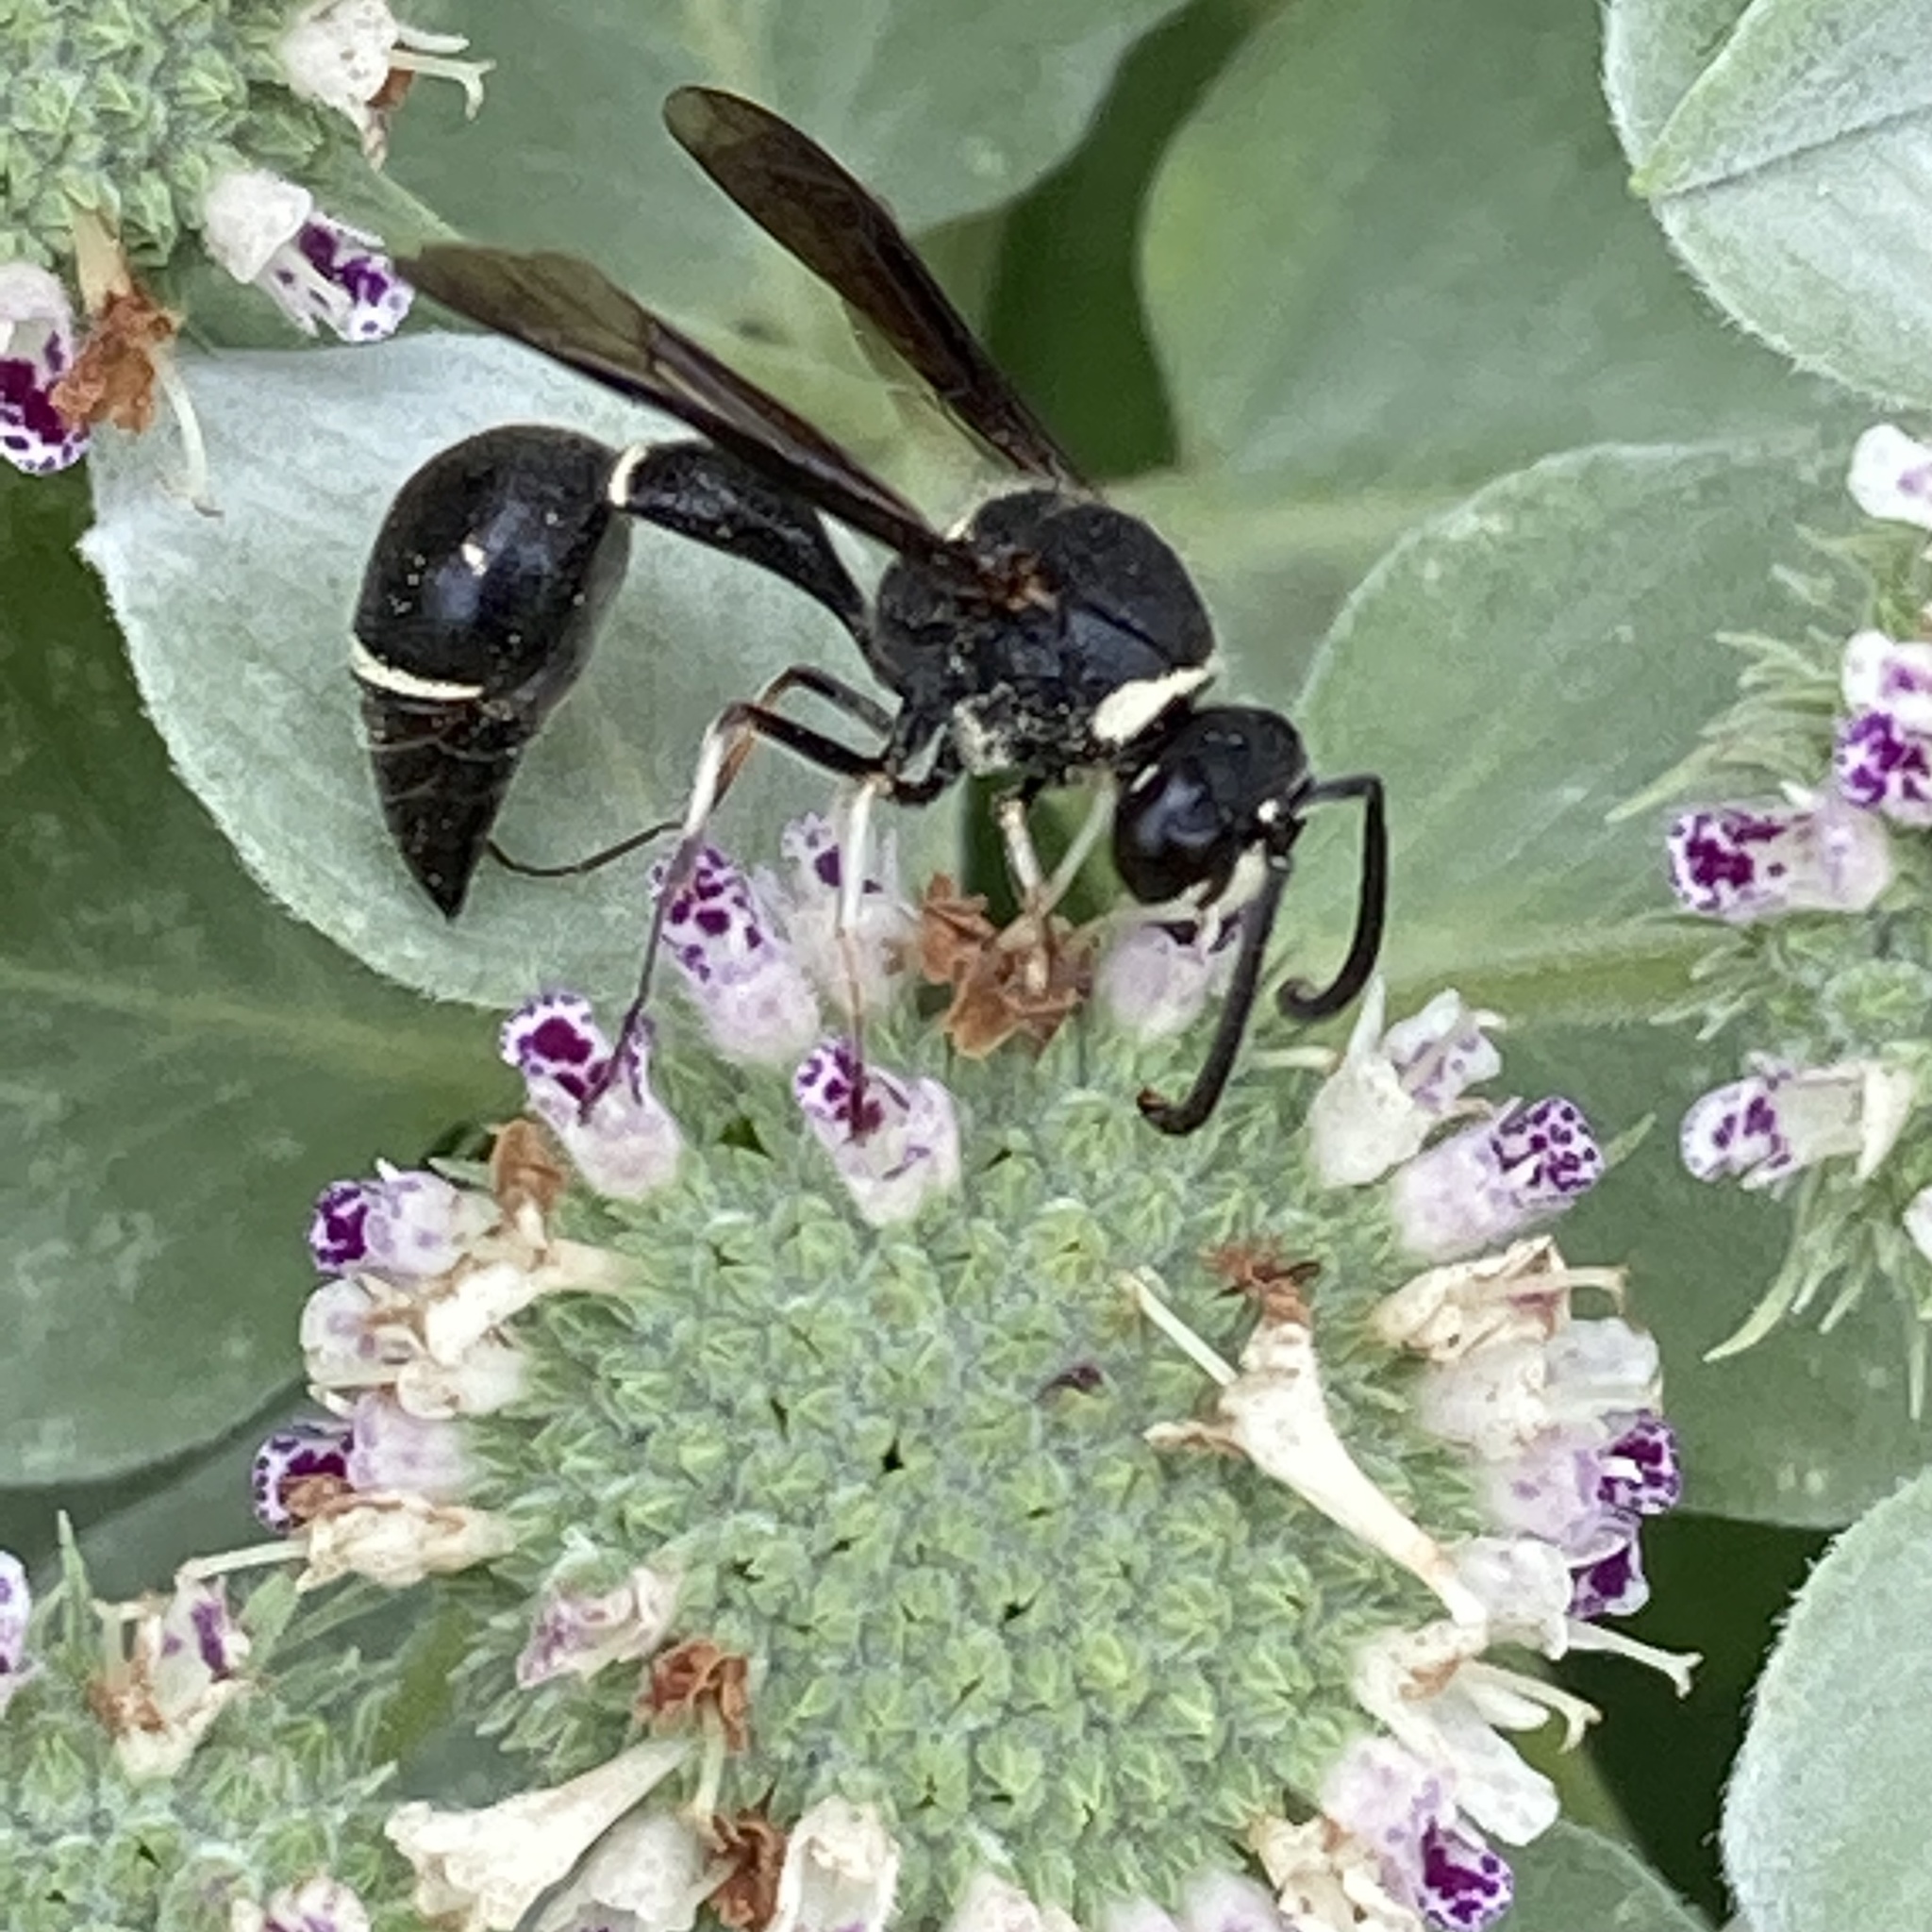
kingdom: Animalia
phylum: Arthropoda
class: Insecta
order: Hymenoptera
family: Vespidae
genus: Eumenes
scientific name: Eumenes fraternus
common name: Fraternal potter wasp
